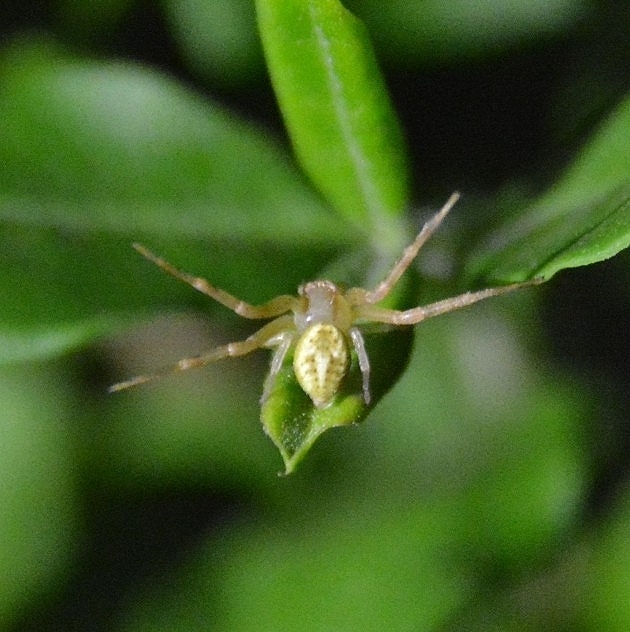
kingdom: Animalia
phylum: Arthropoda
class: Arachnida
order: Araneae
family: Thomisidae
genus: Misumenops
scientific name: Misumenops
